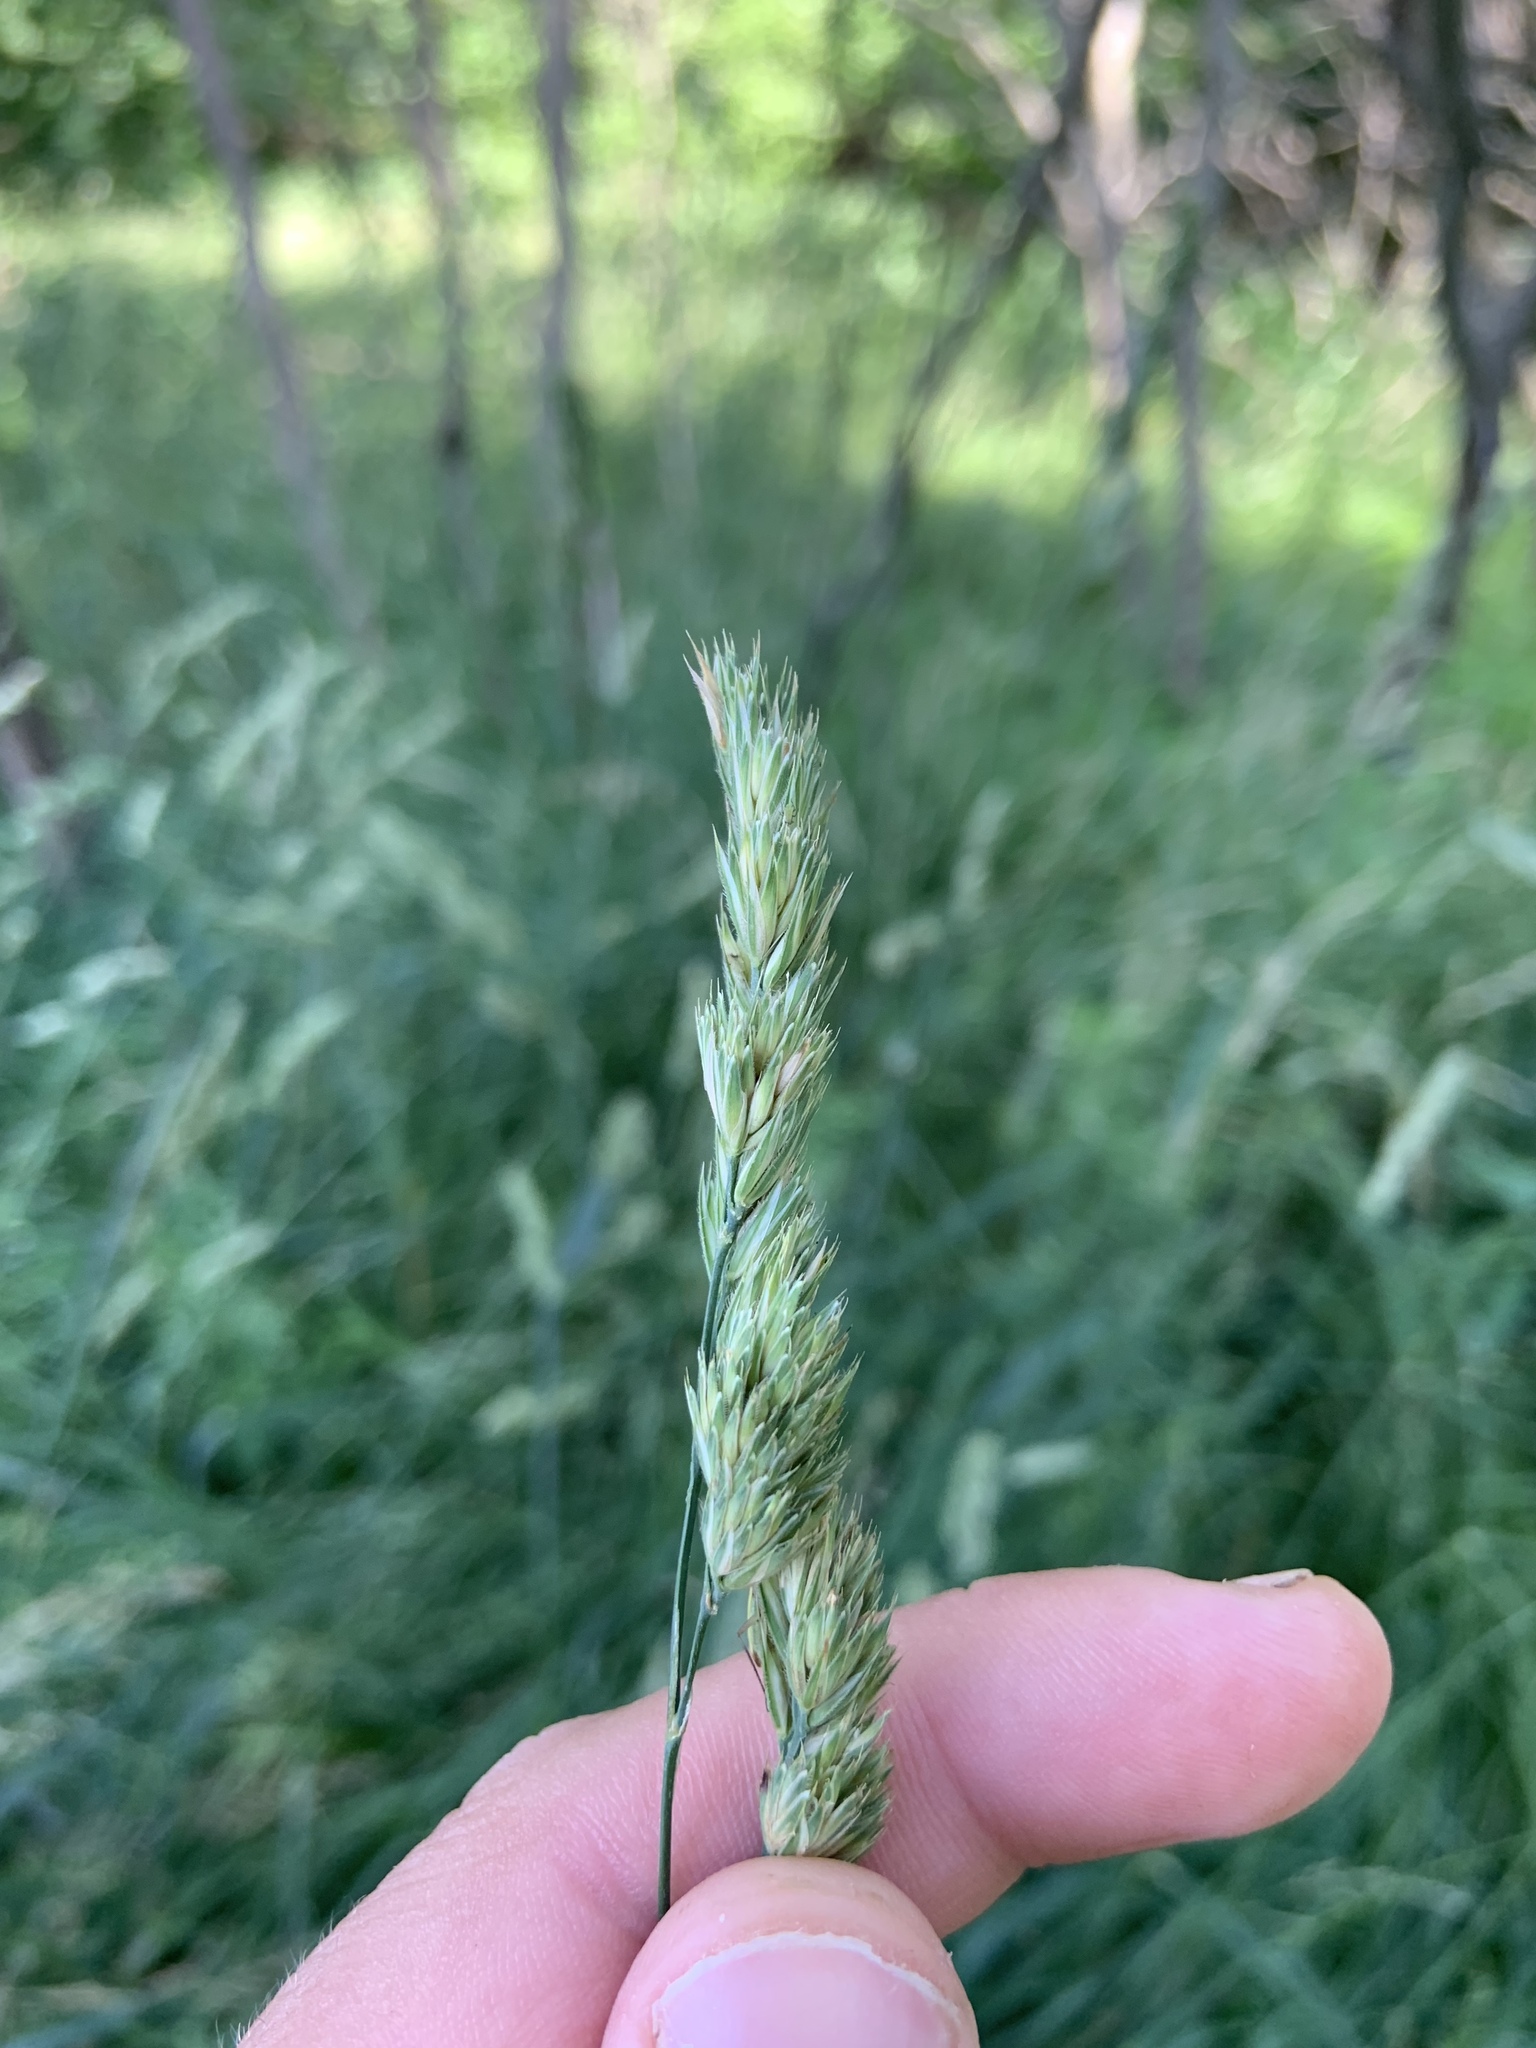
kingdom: Plantae
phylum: Tracheophyta
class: Liliopsida
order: Poales
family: Poaceae
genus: Dactylis
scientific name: Dactylis glomerata
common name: Orchardgrass
